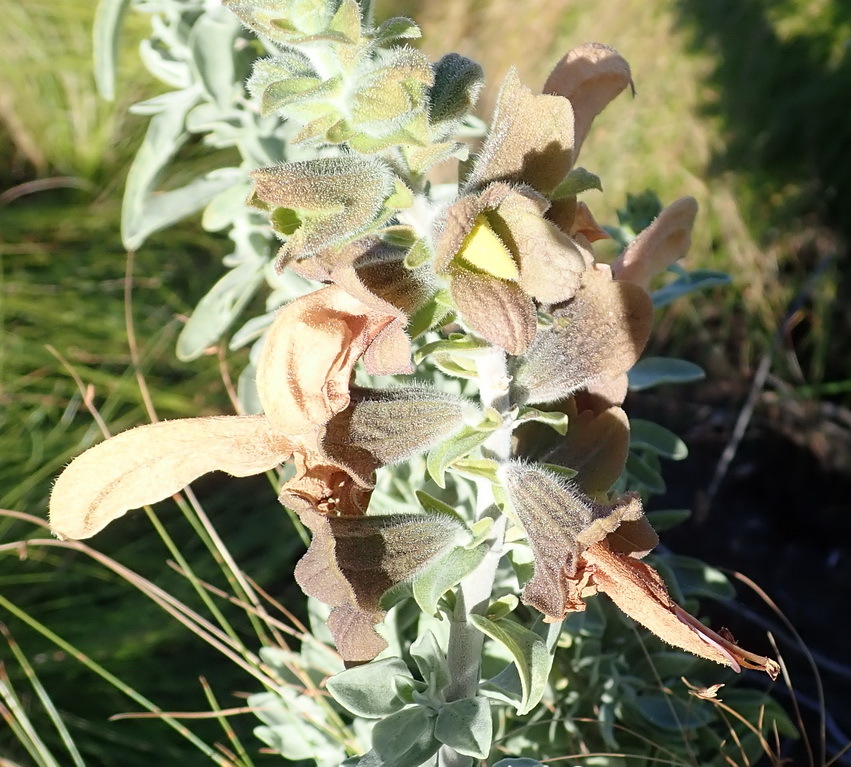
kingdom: Plantae
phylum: Tracheophyta
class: Magnoliopsida
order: Lamiales
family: Lamiaceae
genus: Salvia
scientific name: Salvia aurea
